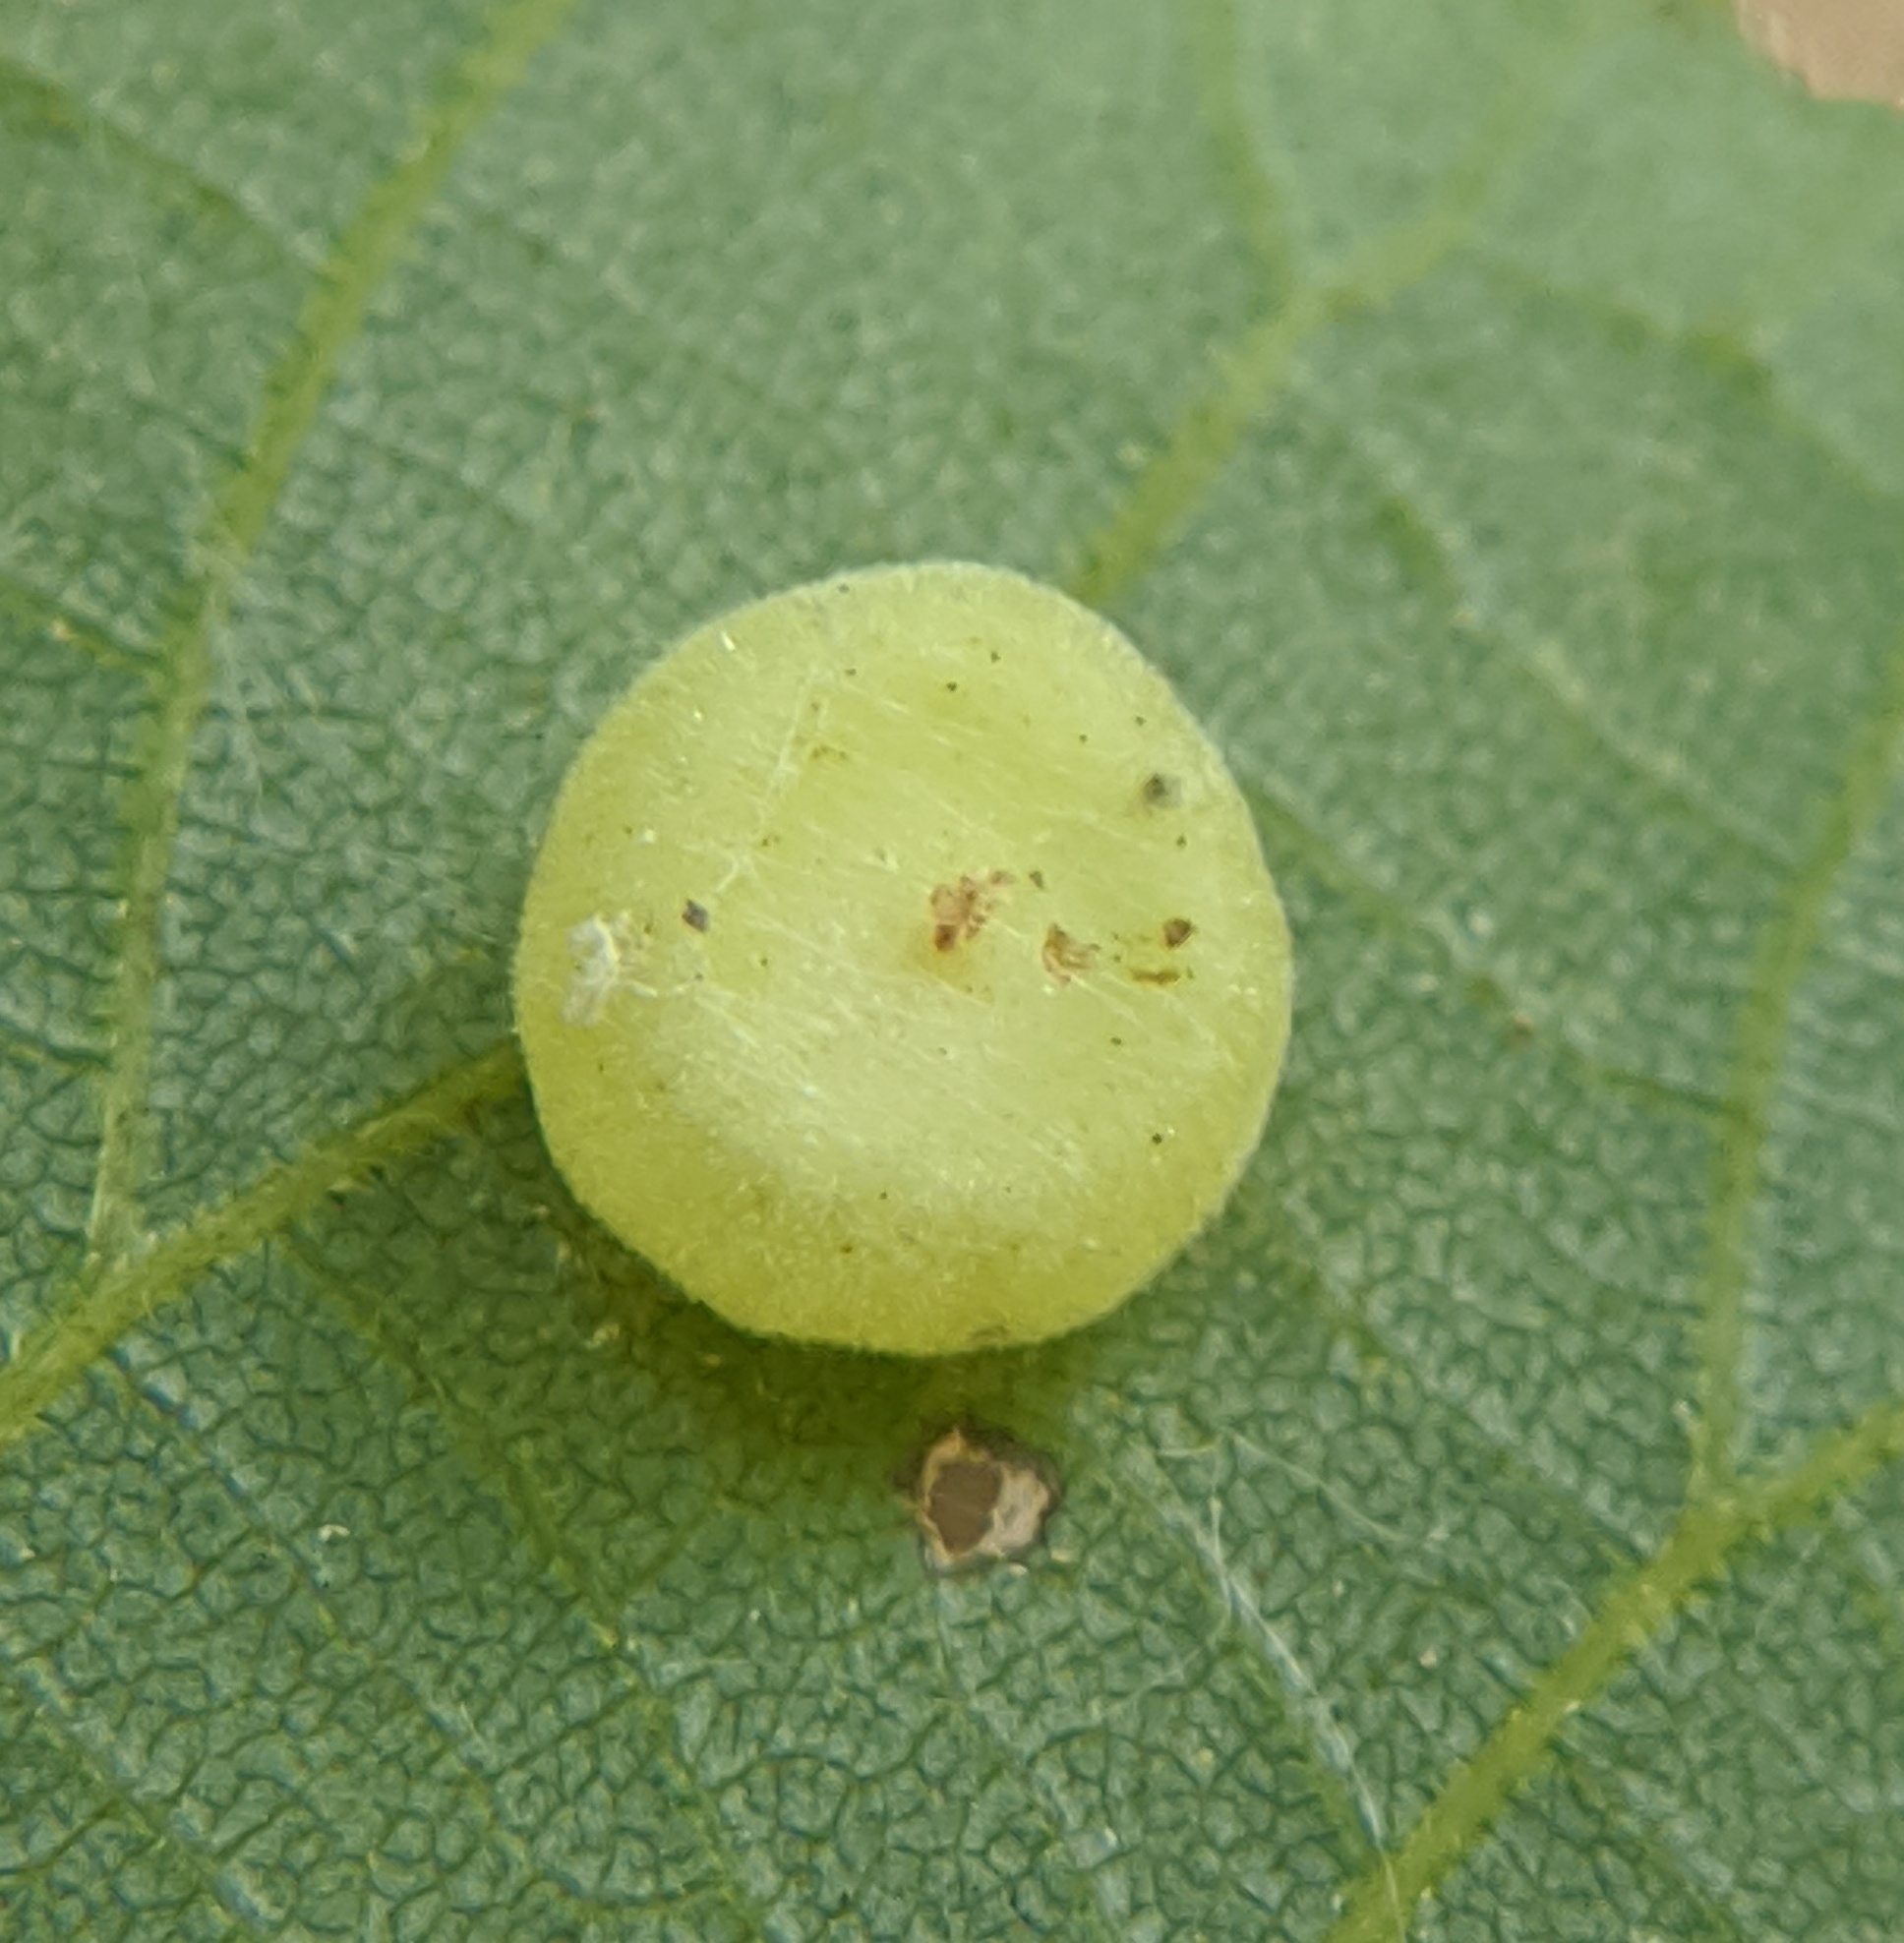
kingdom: Animalia
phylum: Arthropoda
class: Insecta
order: Diptera
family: Cecidomyiidae
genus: Caryomyia
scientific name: Caryomyia biretta
